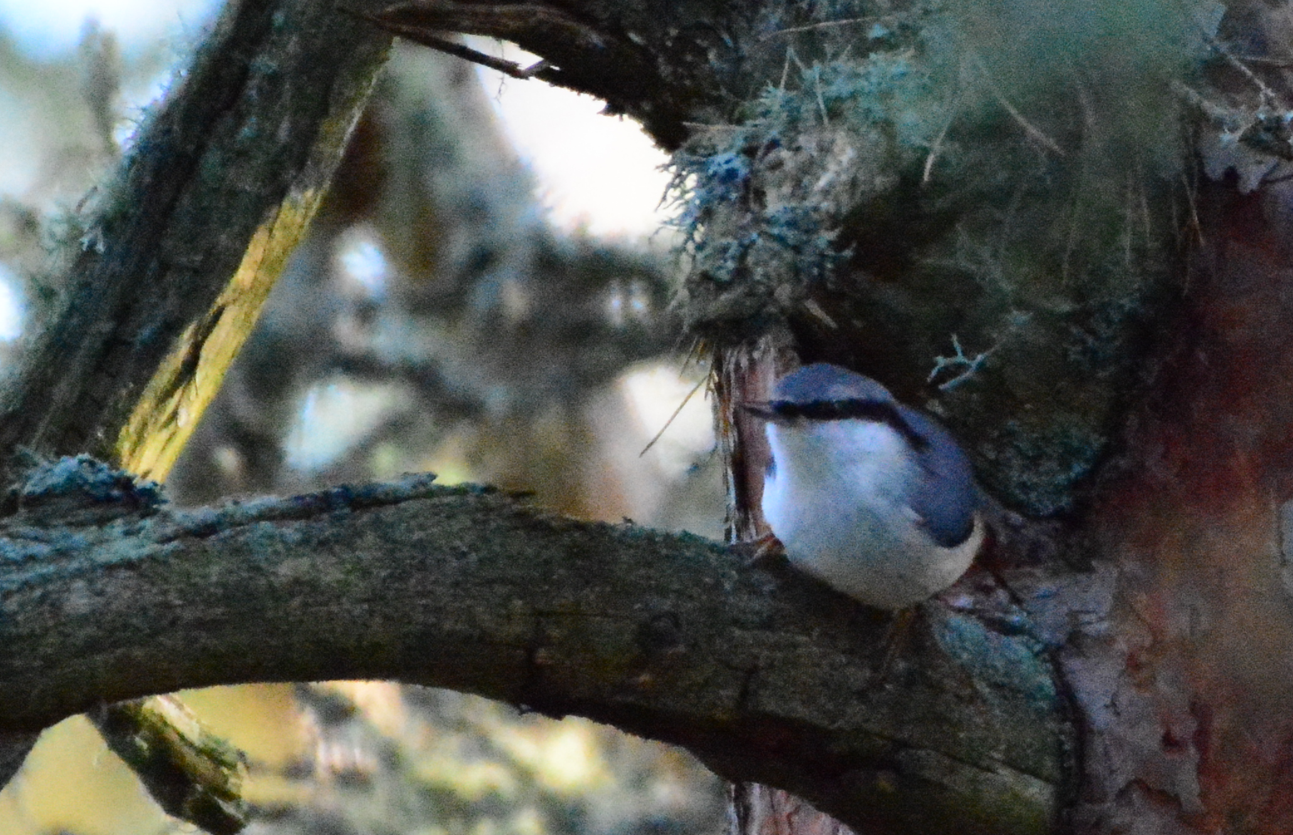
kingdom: Animalia
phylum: Chordata
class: Aves
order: Passeriformes
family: Sittidae
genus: Sitta
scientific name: Sitta europaea
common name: Eurasian nuthatch
